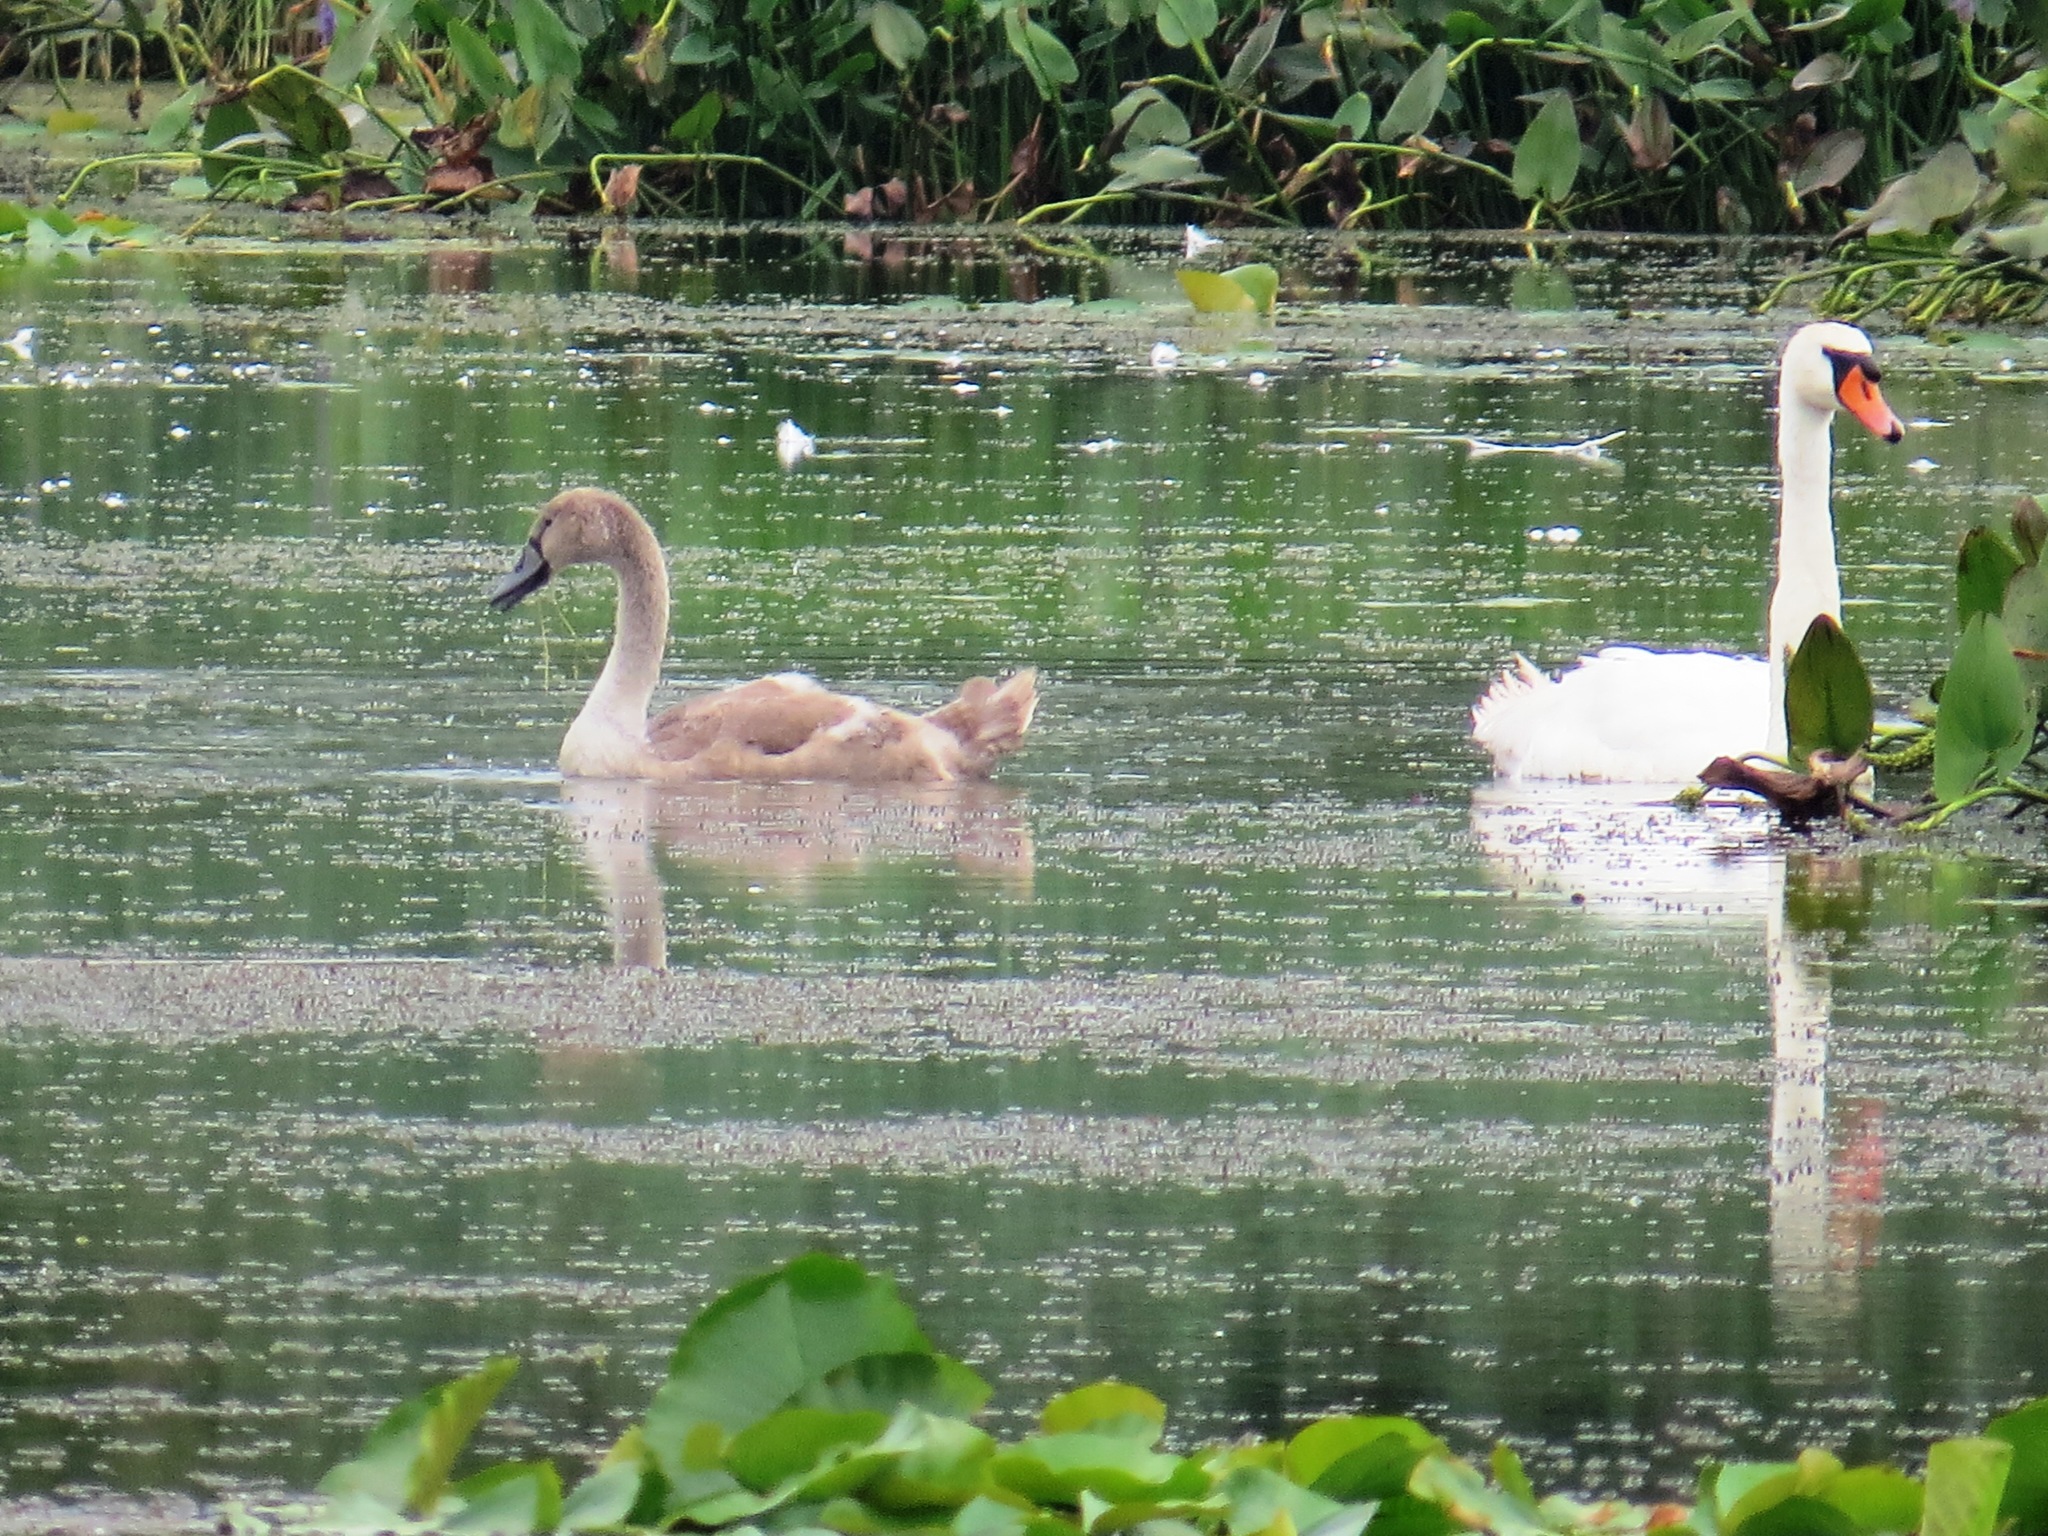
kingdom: Animalia
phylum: Chordata
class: Aves
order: Anseriformes
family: Anatidae
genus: Cygnus
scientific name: Cygnus olor
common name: Mute swan
